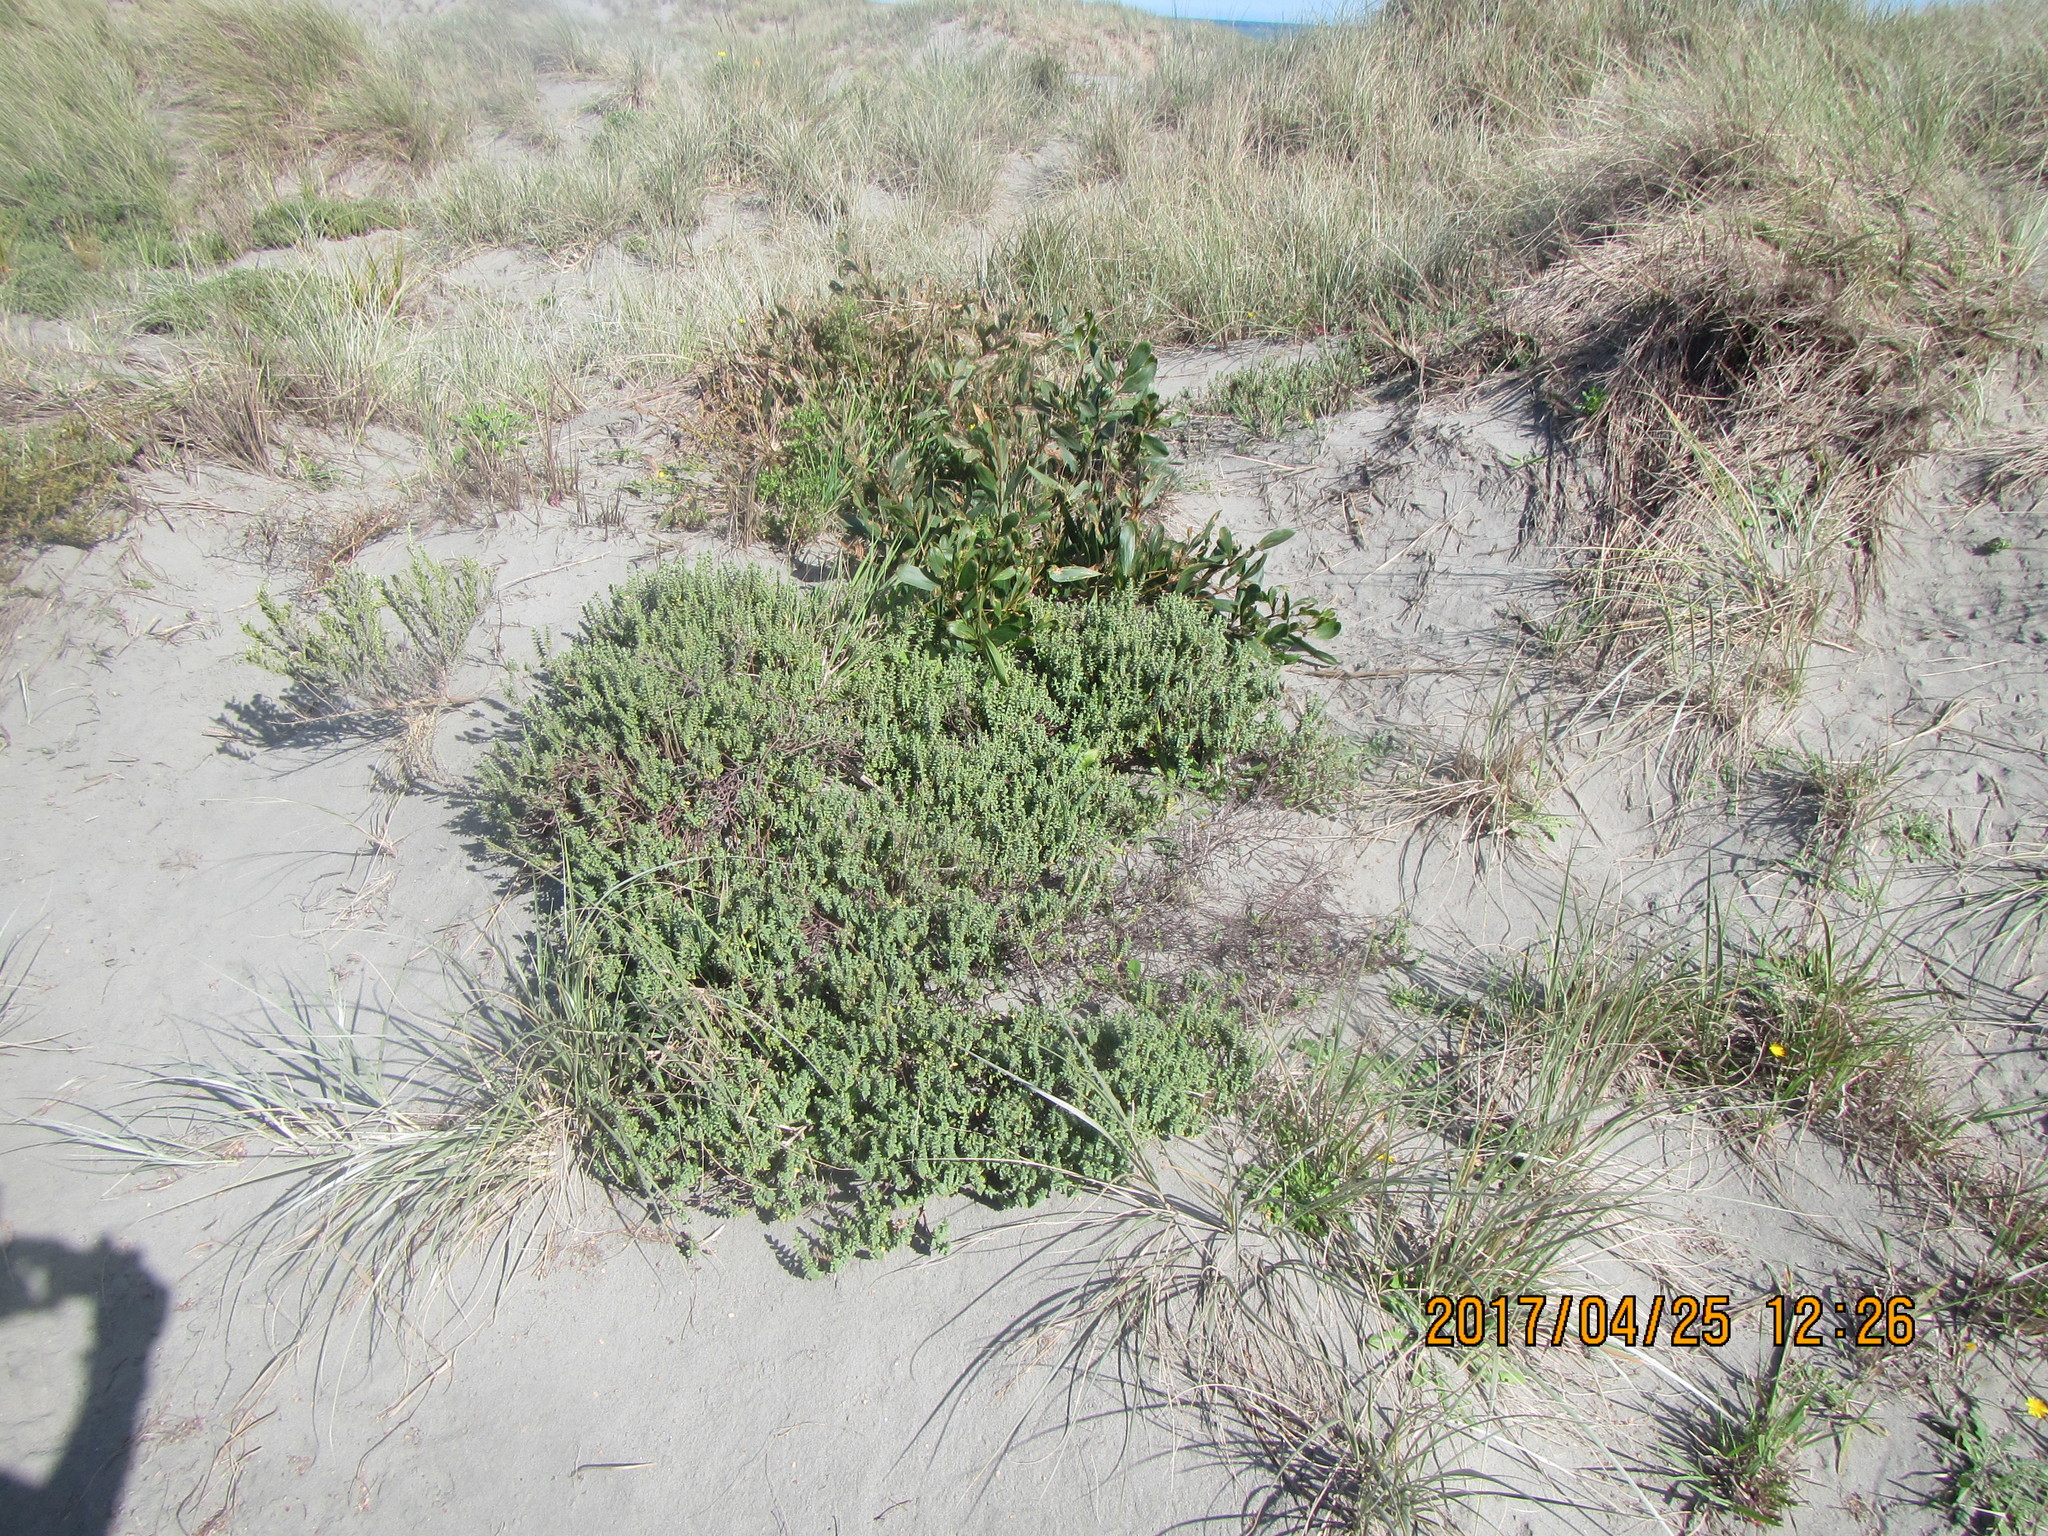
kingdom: Plantae
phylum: Tracheophyta
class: Magnoliopsida
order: Malvales
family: Thymelaeaceae
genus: Pimelea
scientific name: Pimelea villosa
